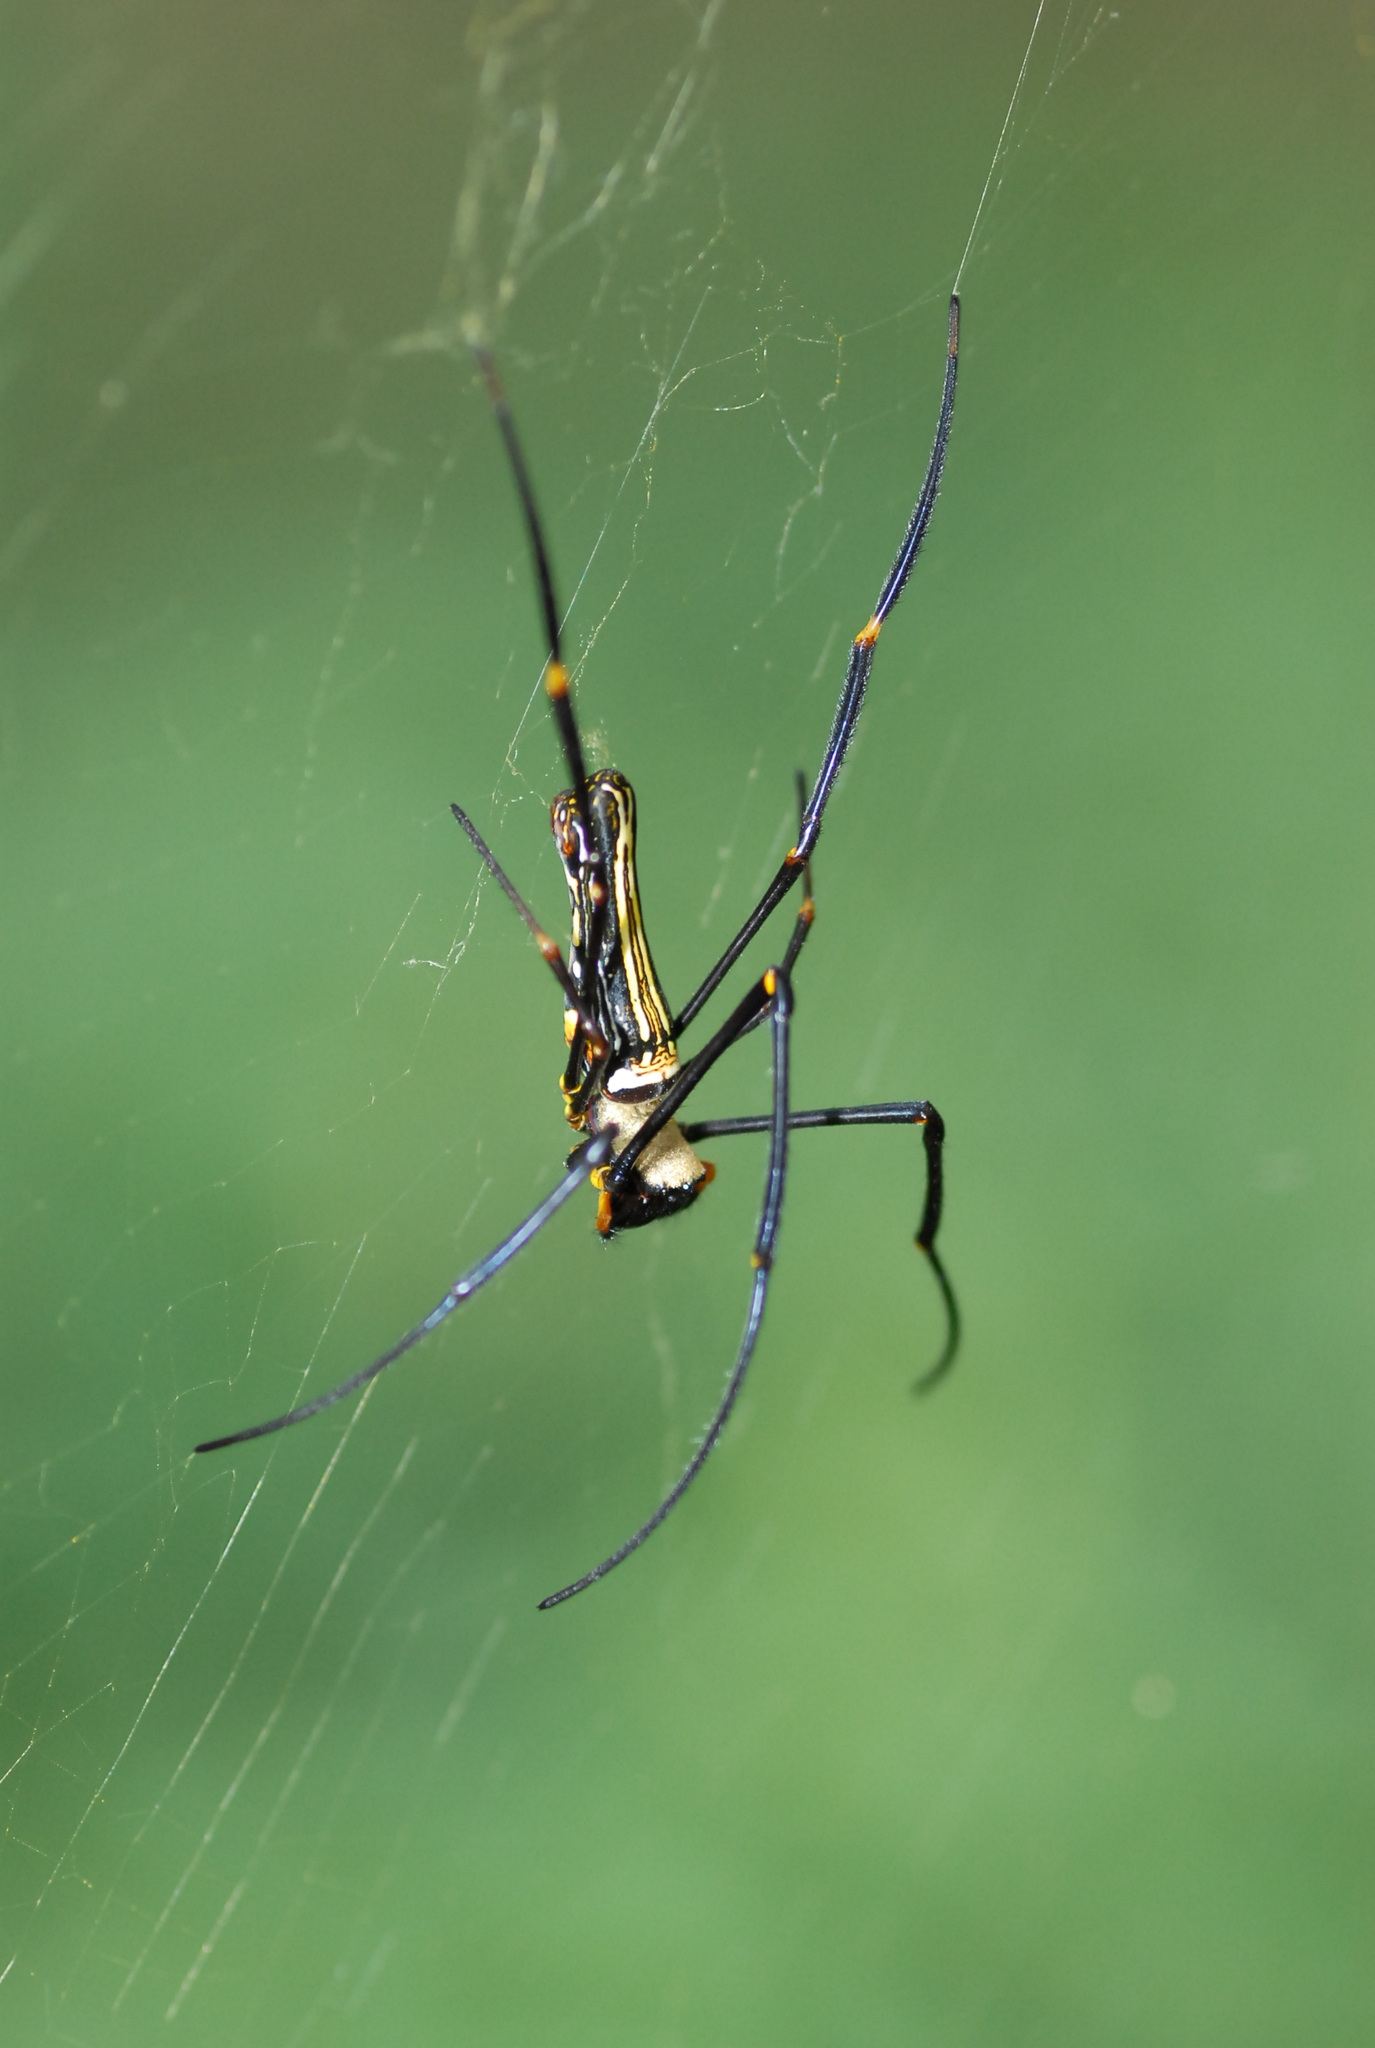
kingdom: Animalia
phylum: Arthropoda
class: Arachnida
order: Araneae
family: Araneidae
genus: Nephila
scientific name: Nephila pilipes
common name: Giant golden orb weaver
